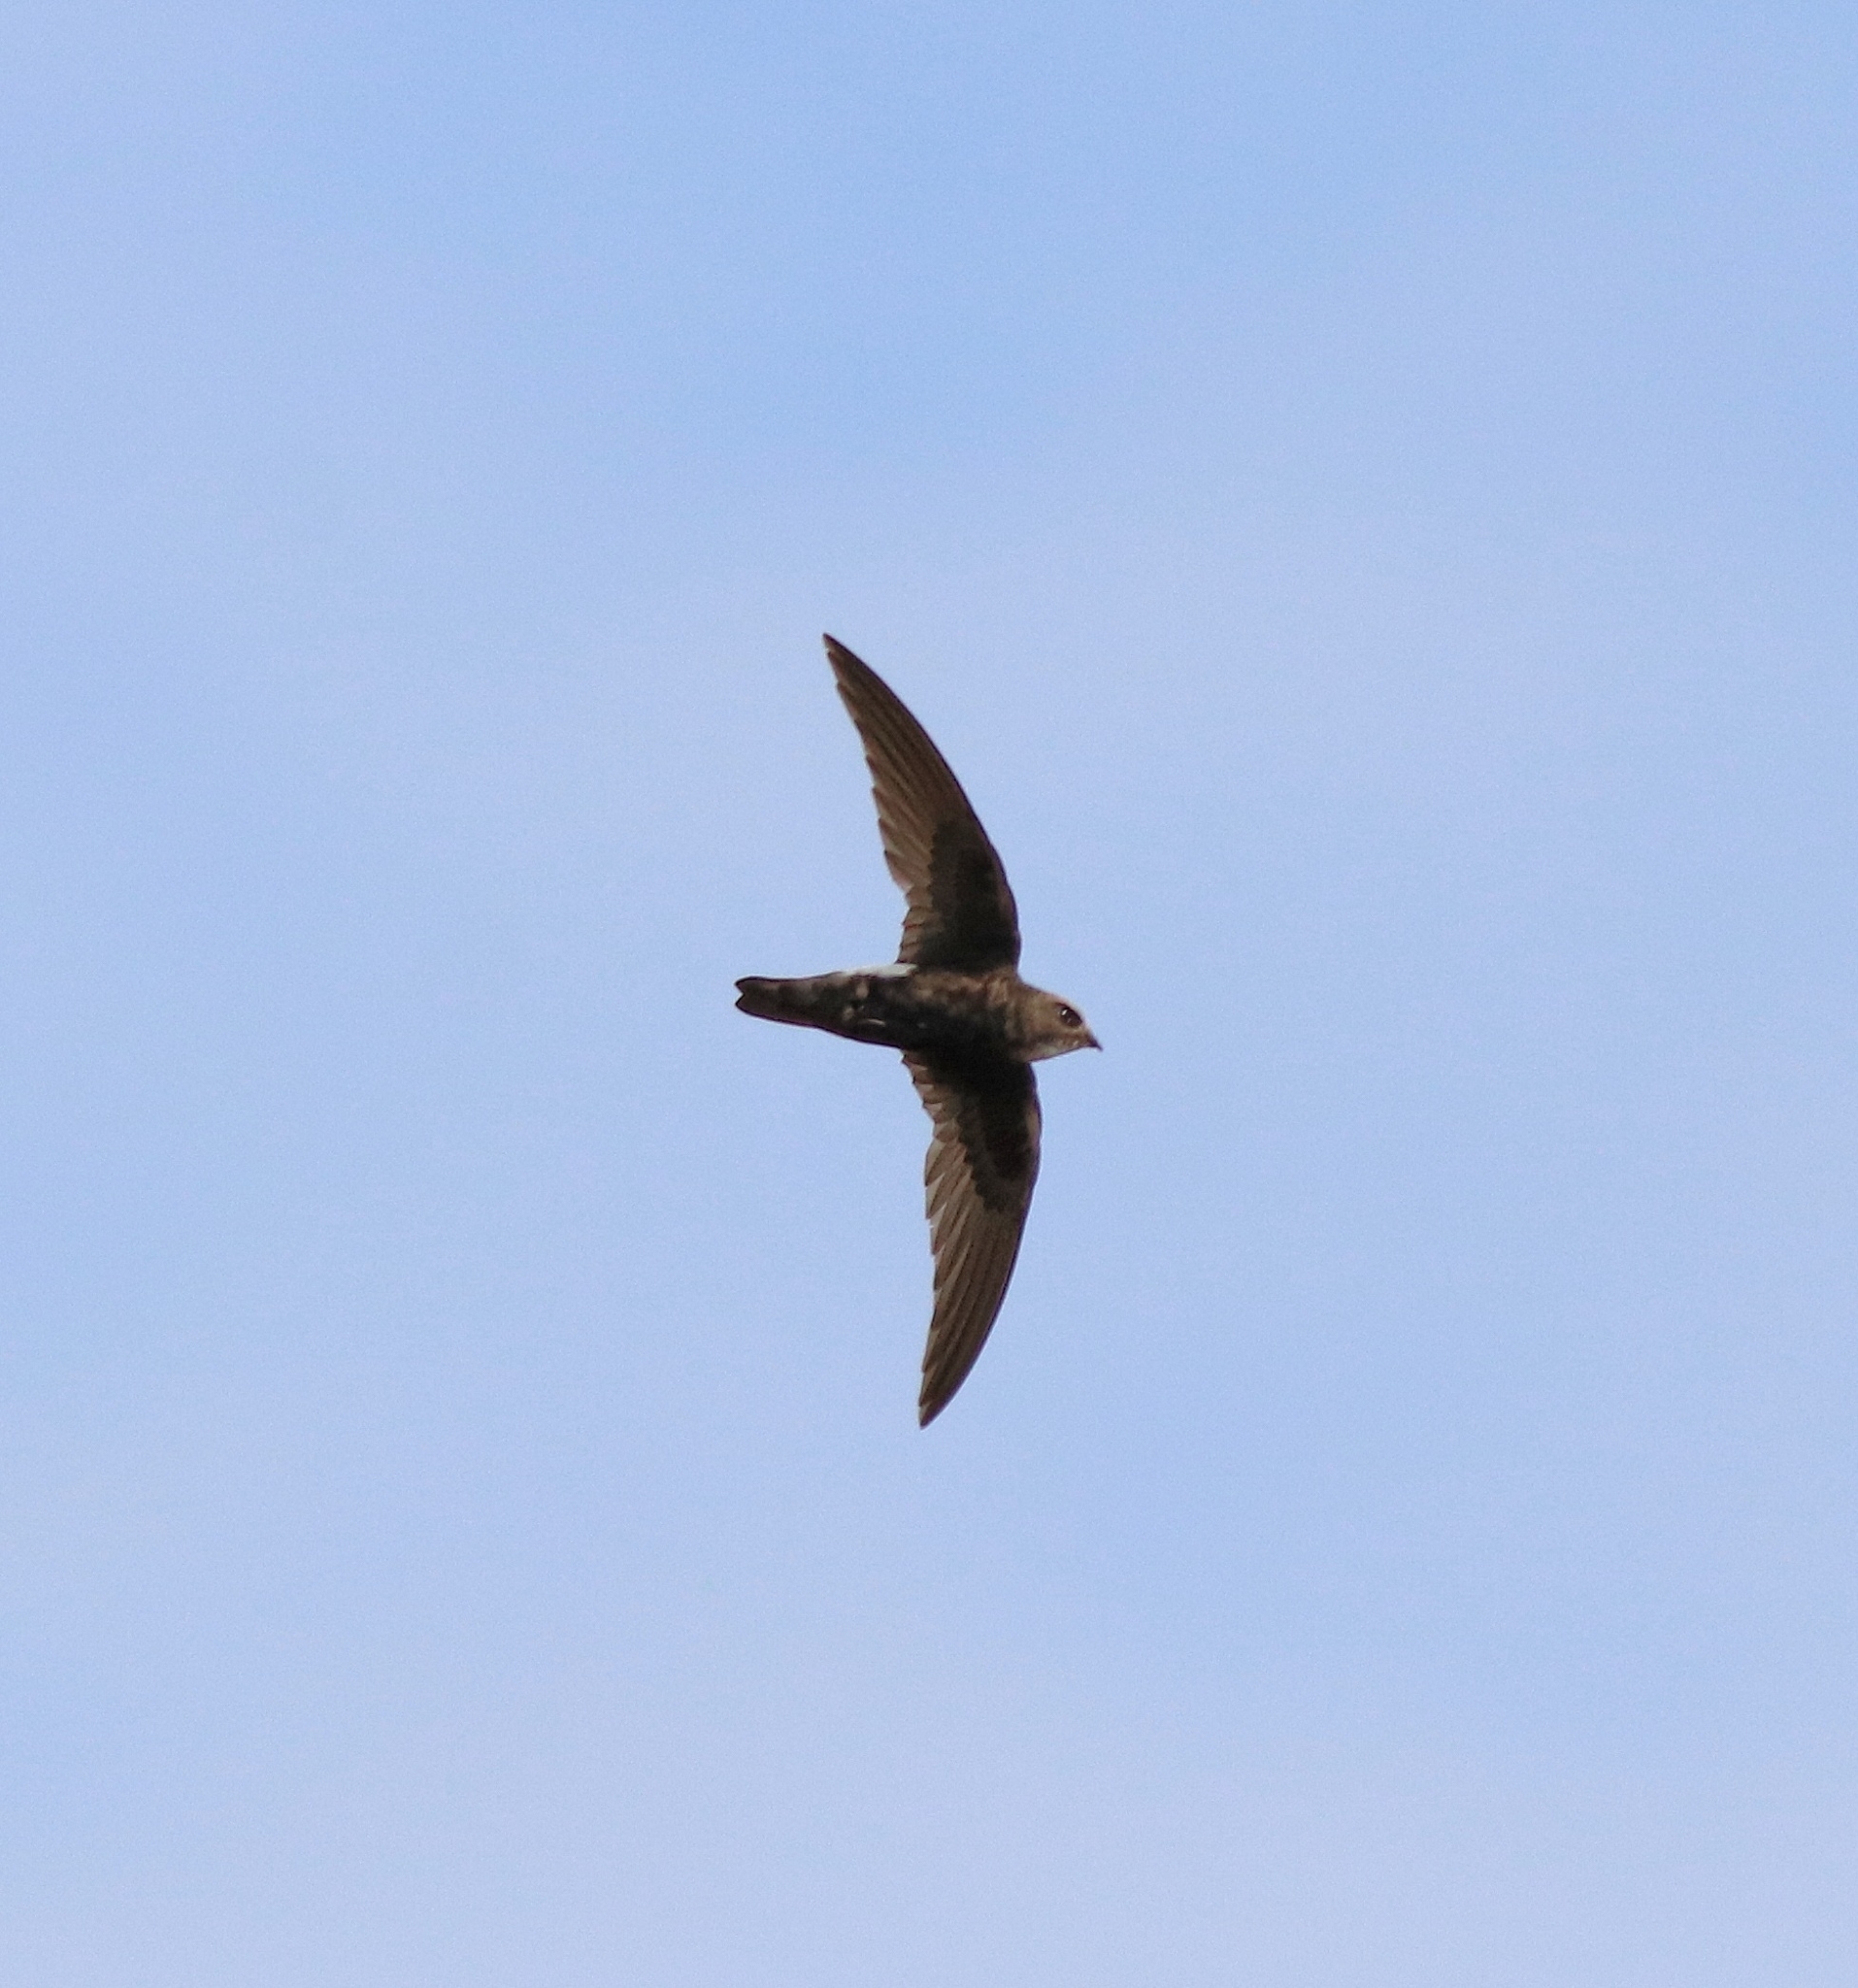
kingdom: Animalia
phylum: Chordata
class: Aves
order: Apodiformes
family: Apodidae
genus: Apus
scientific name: Apus affinis
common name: Little swift
